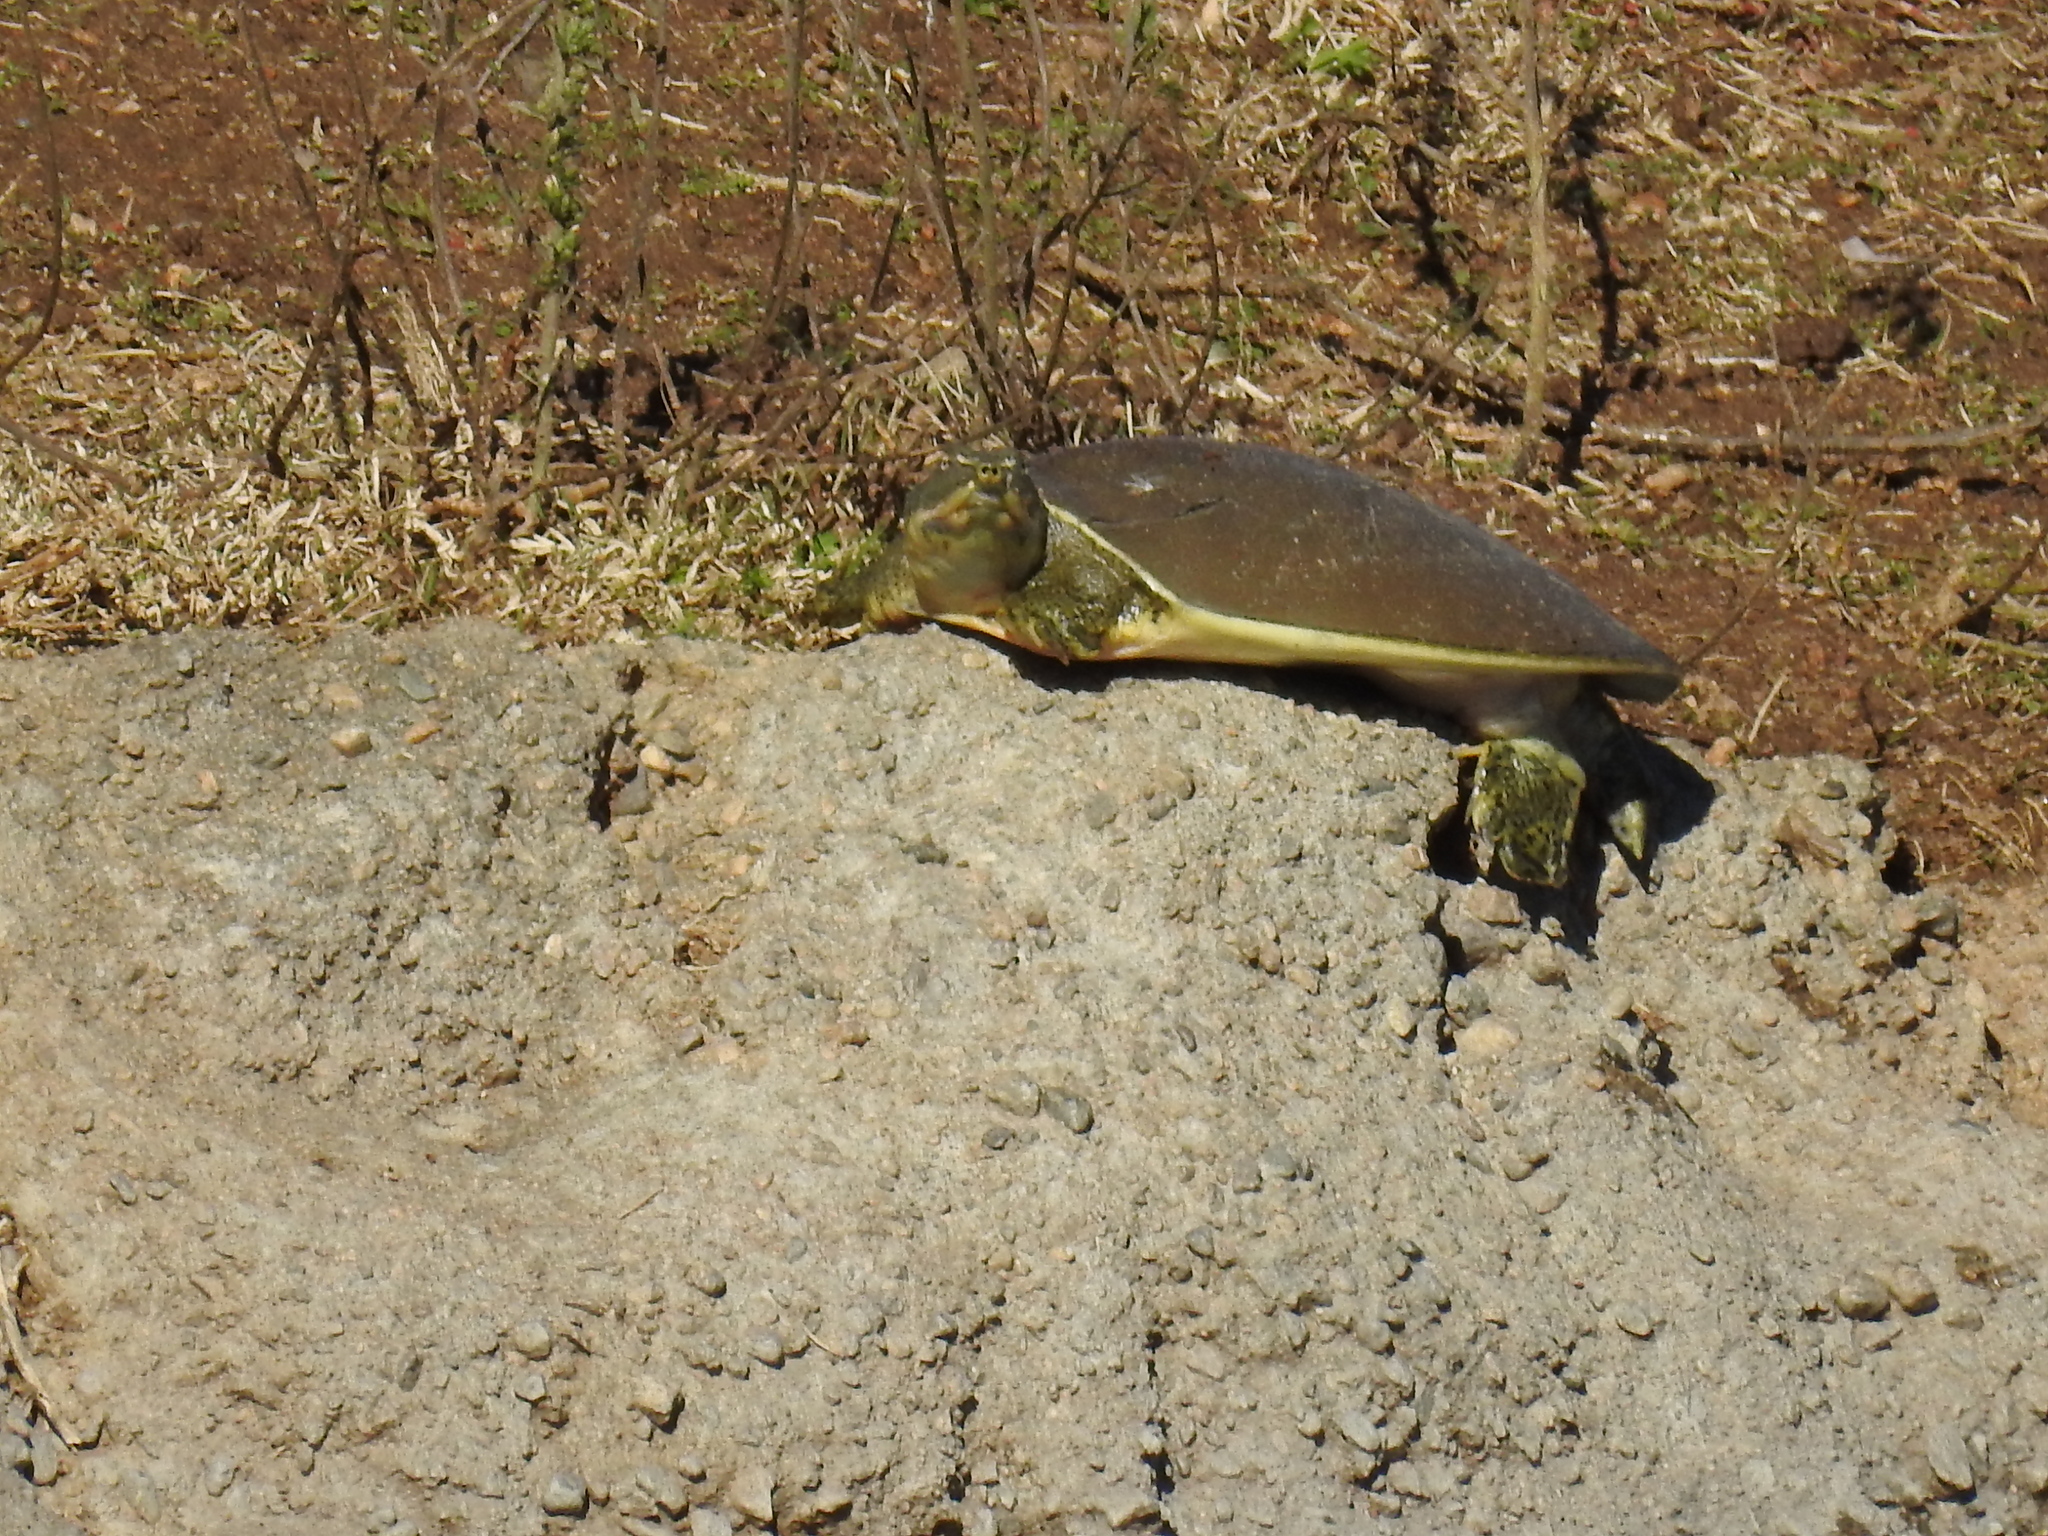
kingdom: Animalia
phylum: Chordata
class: Testudines
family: Trionychidae
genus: Apalone
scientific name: Apalone spinifera
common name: Spiny softshell turtle
